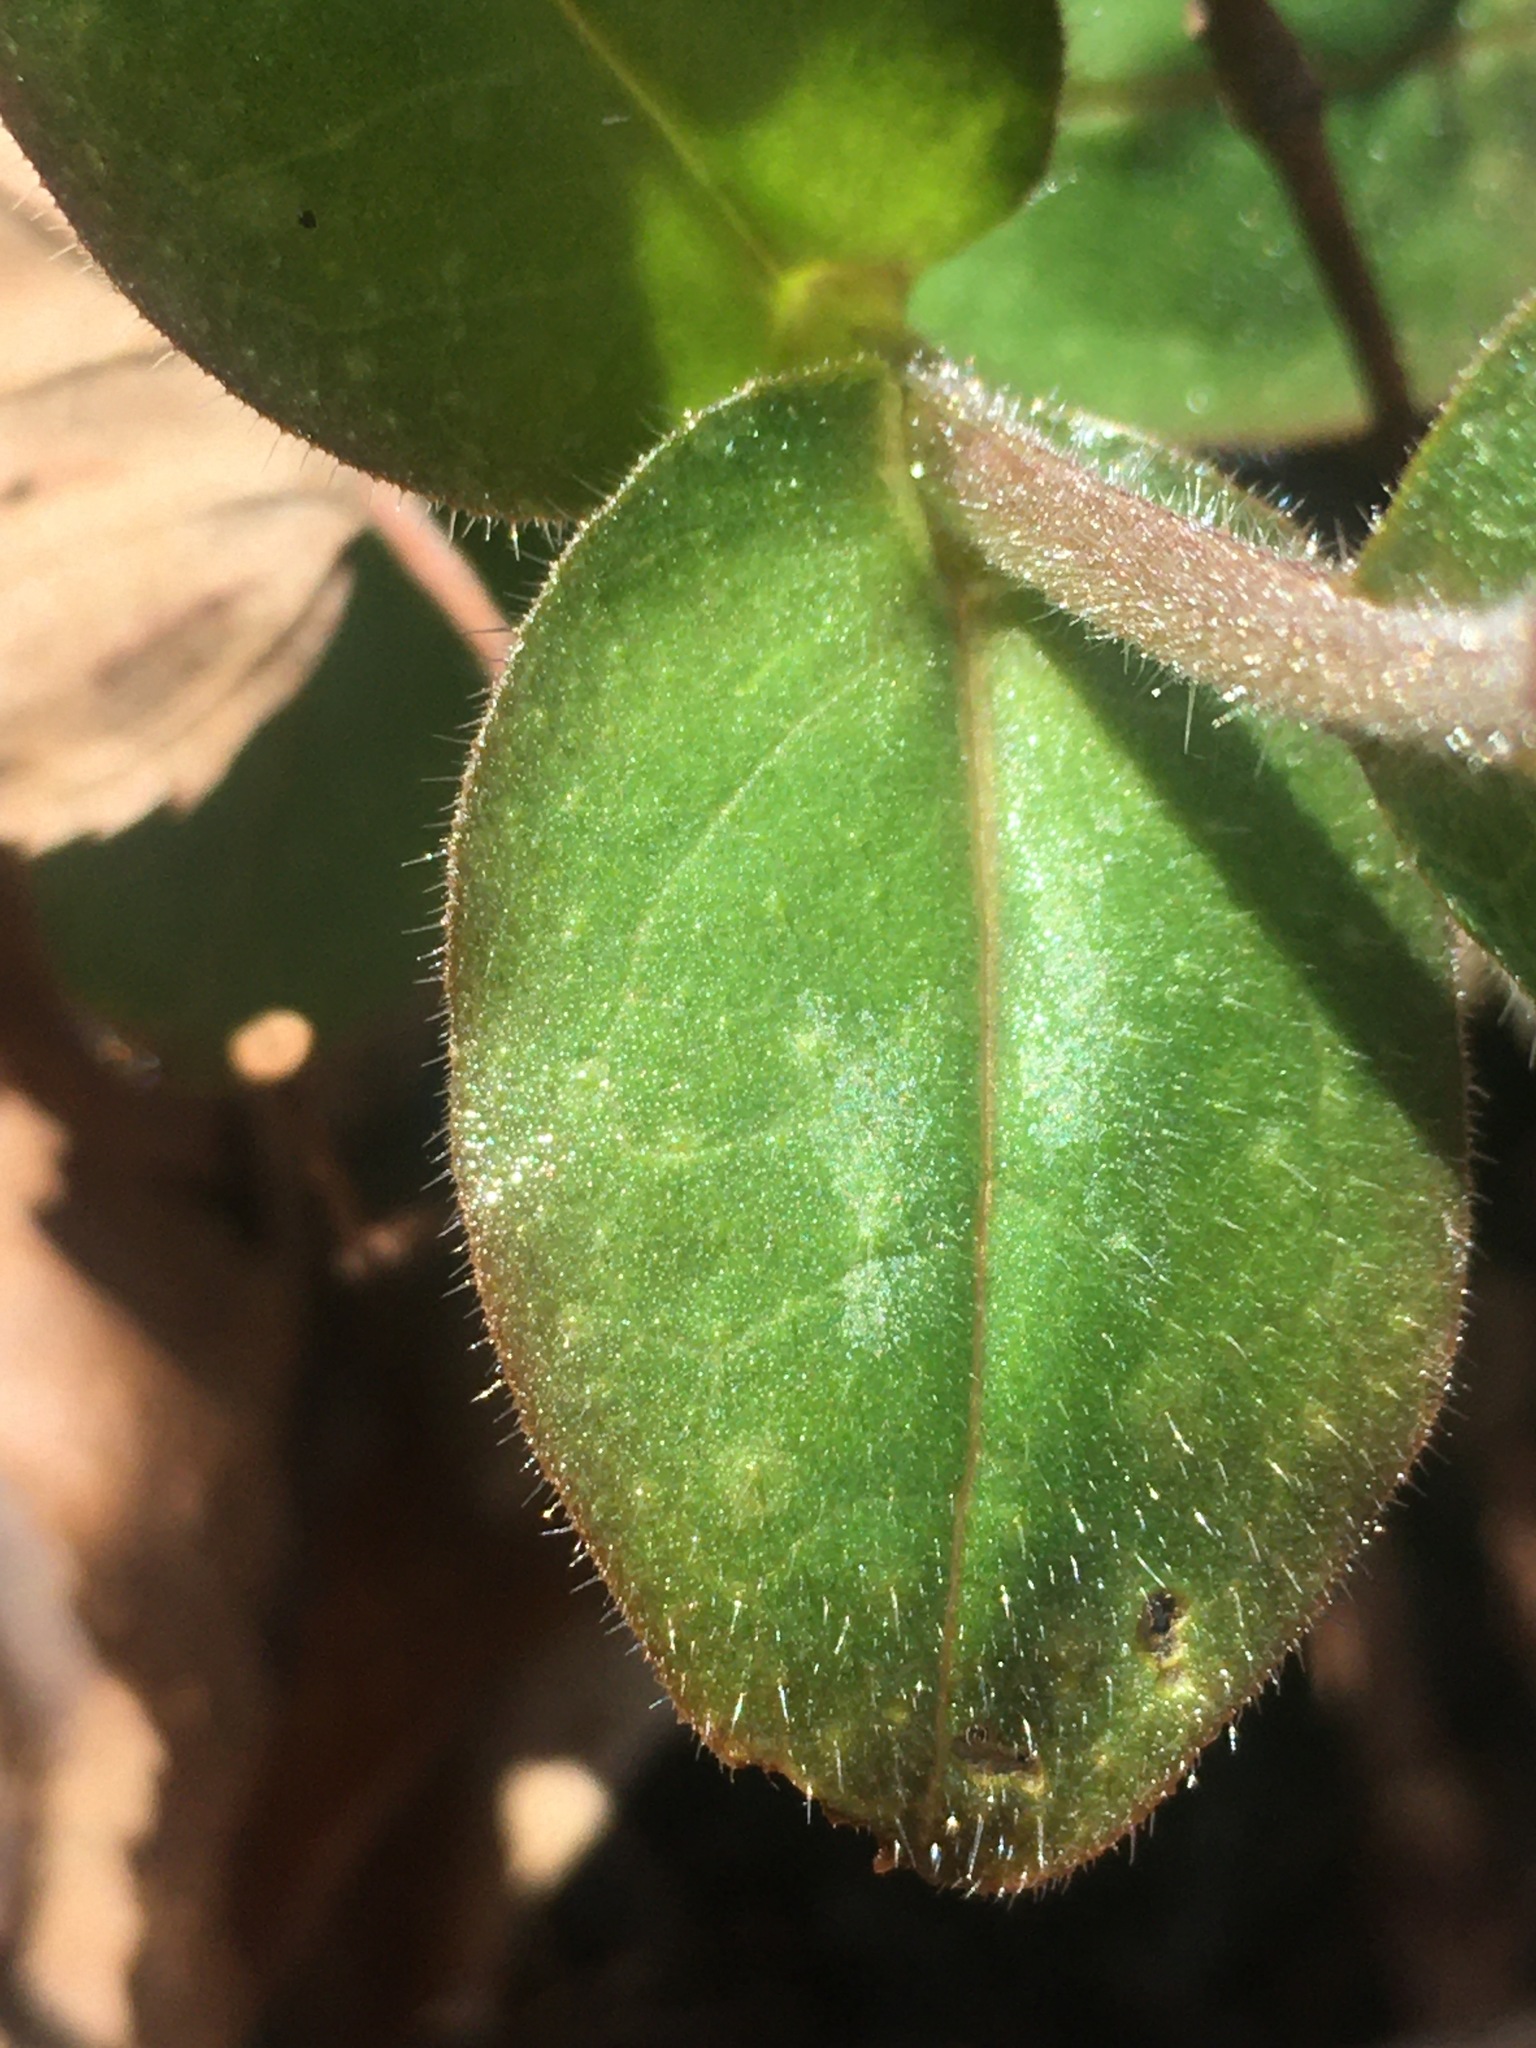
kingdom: Plantae
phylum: Tracheophyta
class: Magnoliopsida
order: Boraginales
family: Boraginaceae
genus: Pulmonaria
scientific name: Pulmonaria obscura
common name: Suffolk lungwort
